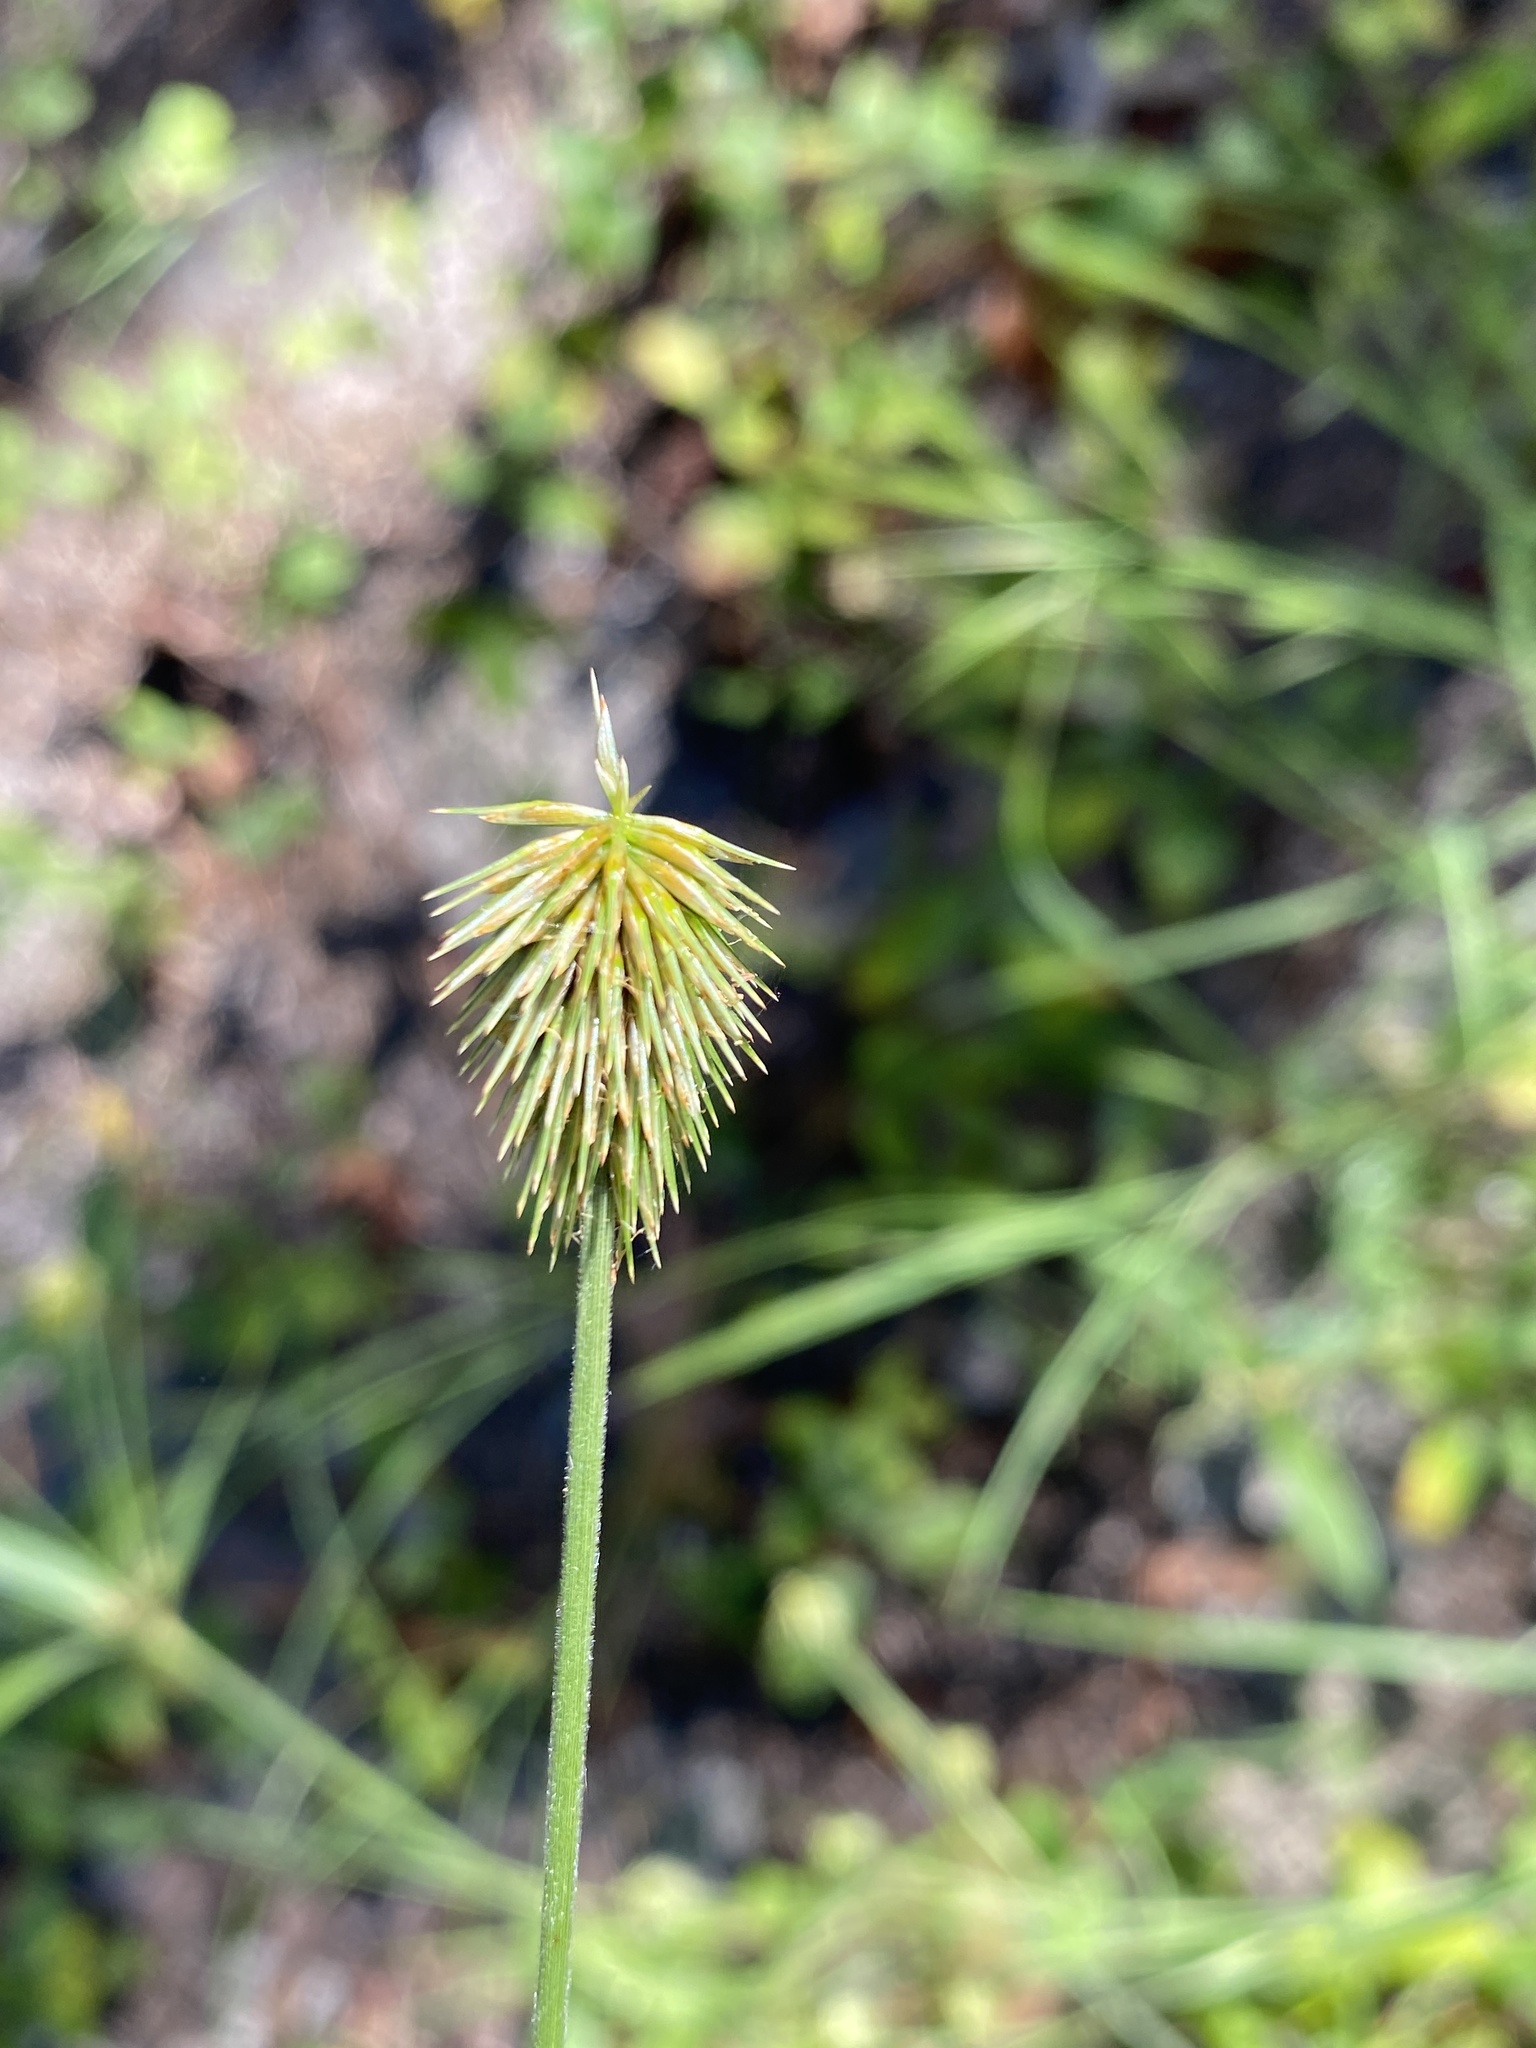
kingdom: Plantae
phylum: Tracheophyta
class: Liliopsida
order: Poales
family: Cyperaceae
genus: Cyperus
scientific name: Cyperus plukenetii
